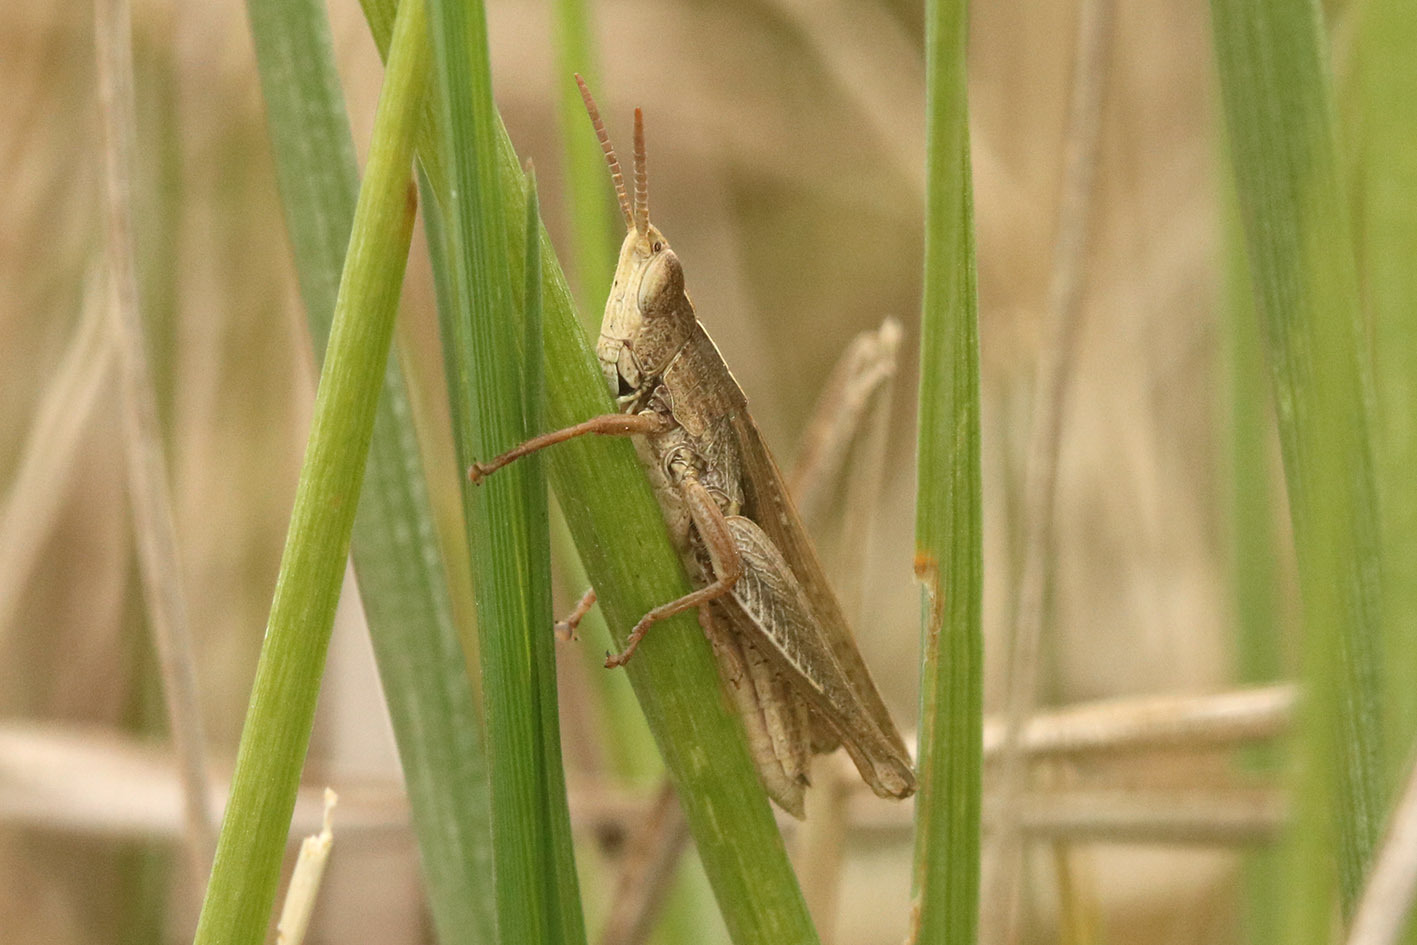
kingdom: Animalia
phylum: Arthropoda
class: Insecta
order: Orthoptera
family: Acrididae
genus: Laplatacris
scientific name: Laplatacris dispar
